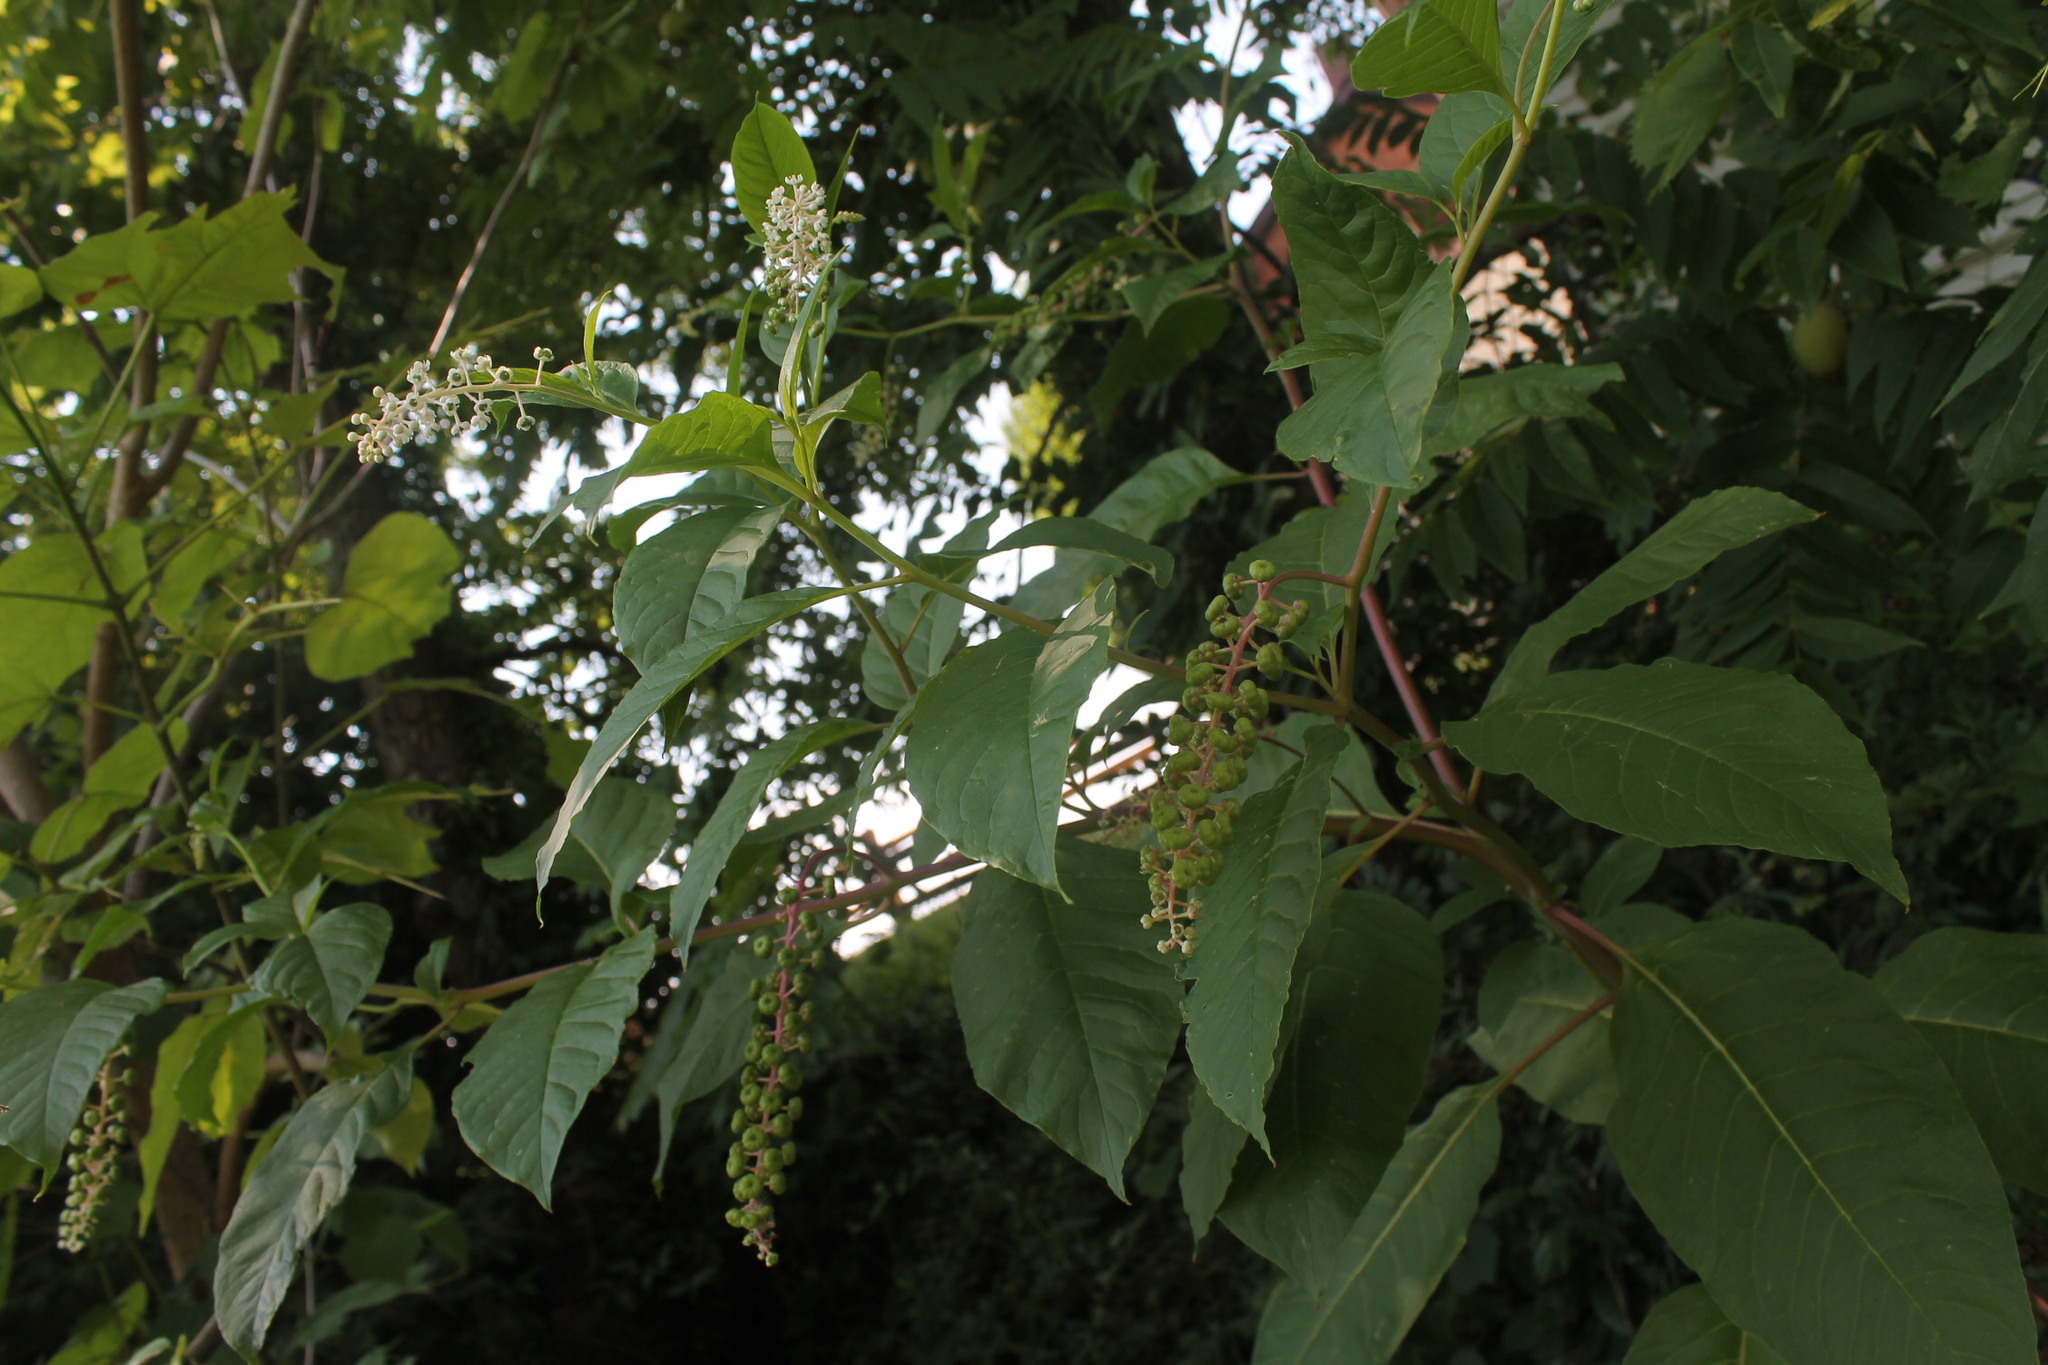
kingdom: Plantae
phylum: Tracheophyta
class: Magnoliopsida
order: Caryophyllales
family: Phytolaccaceae
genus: Phytolacca
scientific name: Phytolacca americana
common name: American pokeweed
